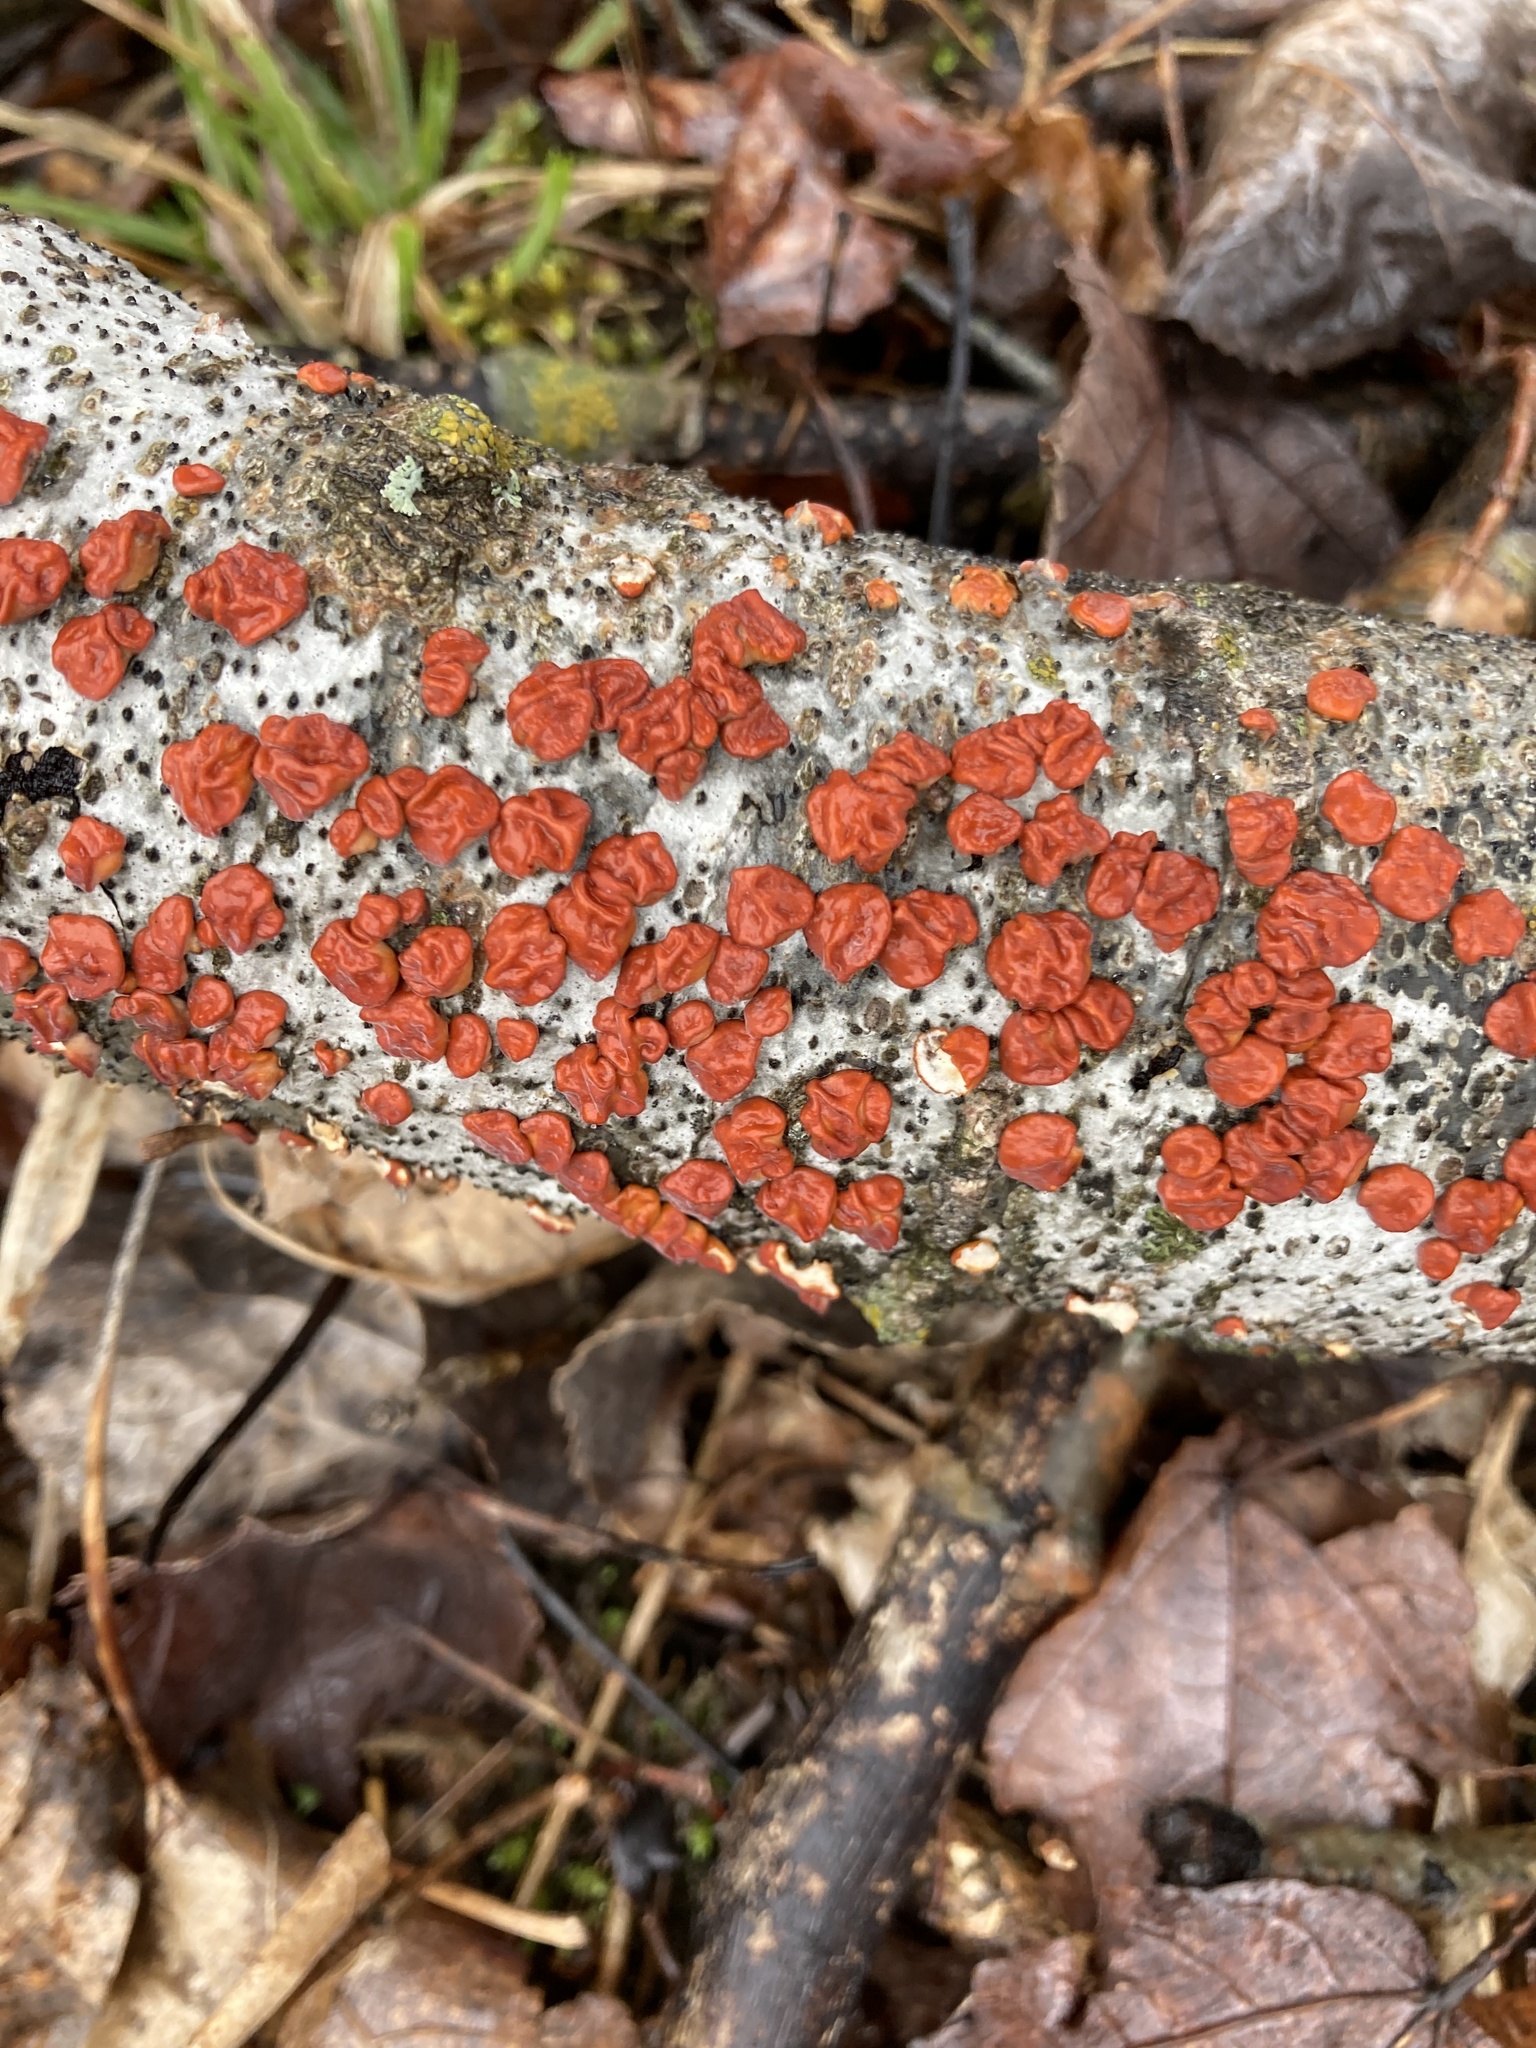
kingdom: Fungi
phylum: Basidiomycota
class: Agaricomycetes
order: Russulales
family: Peniophoraceae
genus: Peniophora
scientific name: Peniophora rufa
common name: Red tree brain fungus
